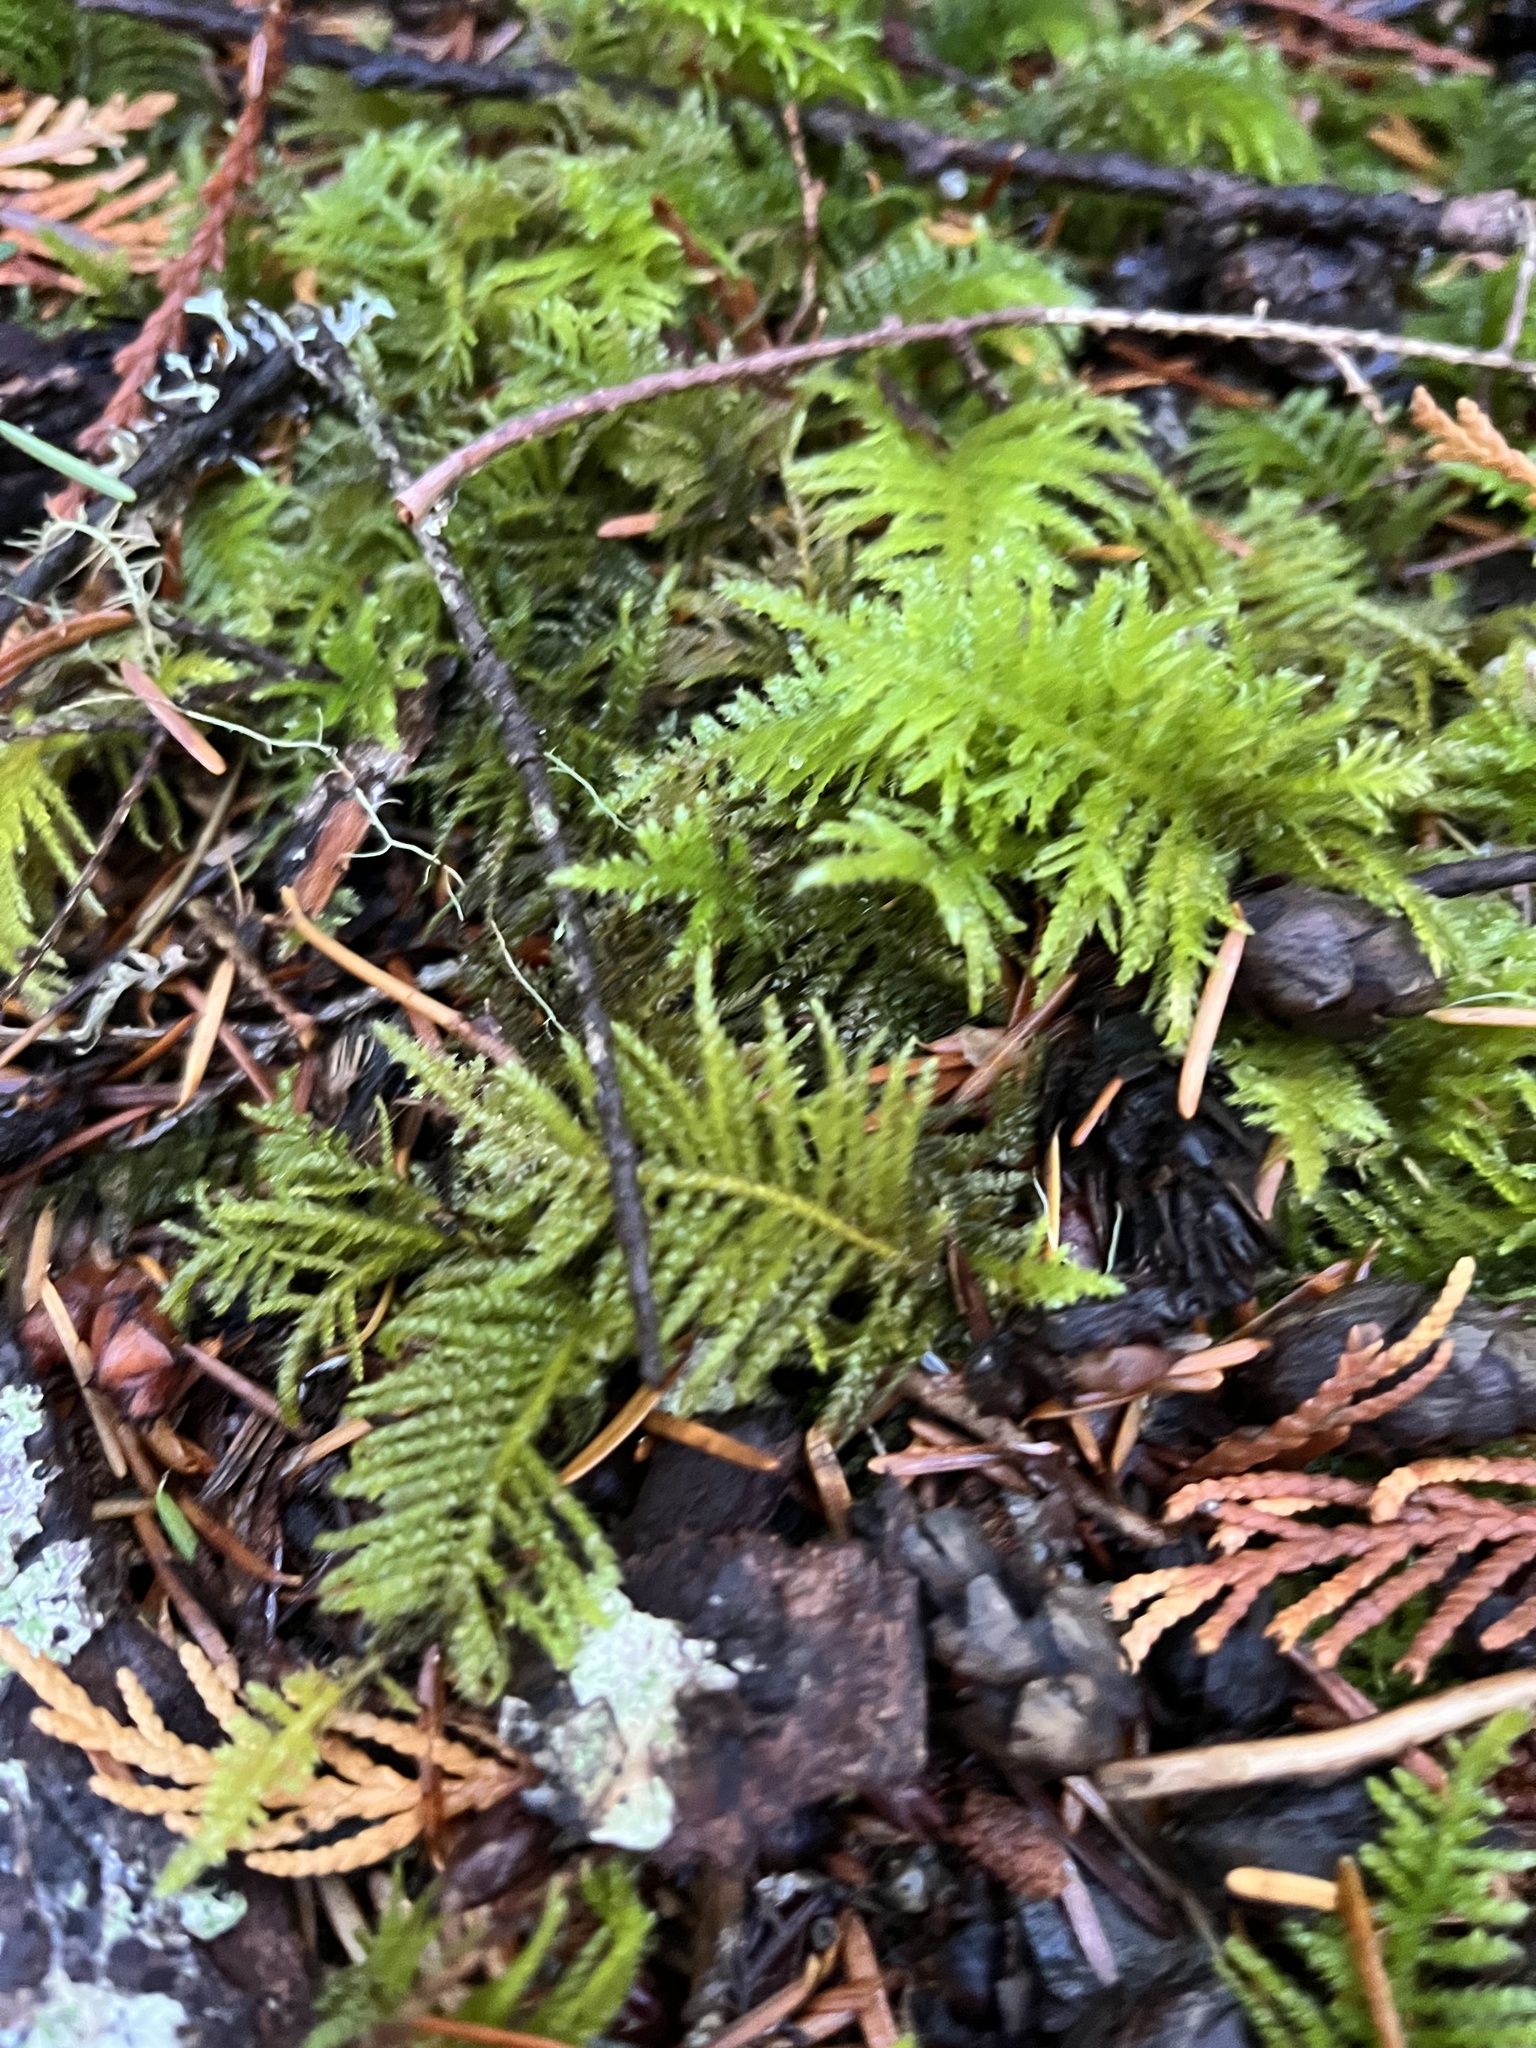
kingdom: Plantae
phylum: Bryophyta
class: Bryopsida
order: Hypnales
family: Brachytheciaceae
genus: Kindbergia
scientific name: Kindbergia oregana
